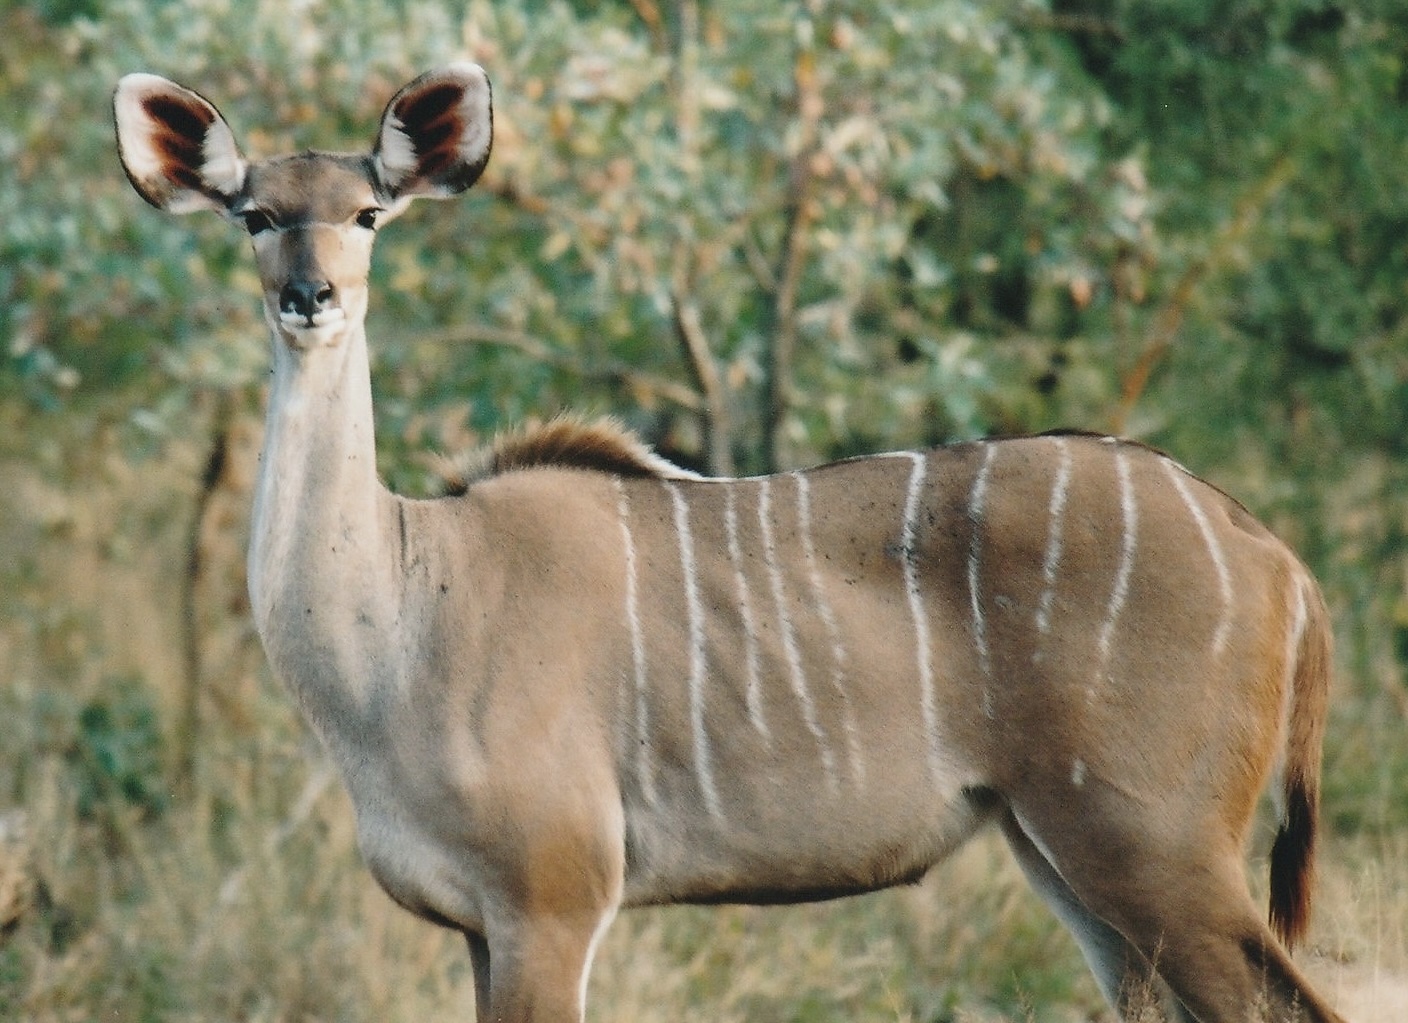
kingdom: Animalia
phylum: Chordata
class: Mammalia
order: Artiodactyla
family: Bovidae
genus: Tragelaphus
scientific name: Tragelaphus strepsiceros
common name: Greater kudu
